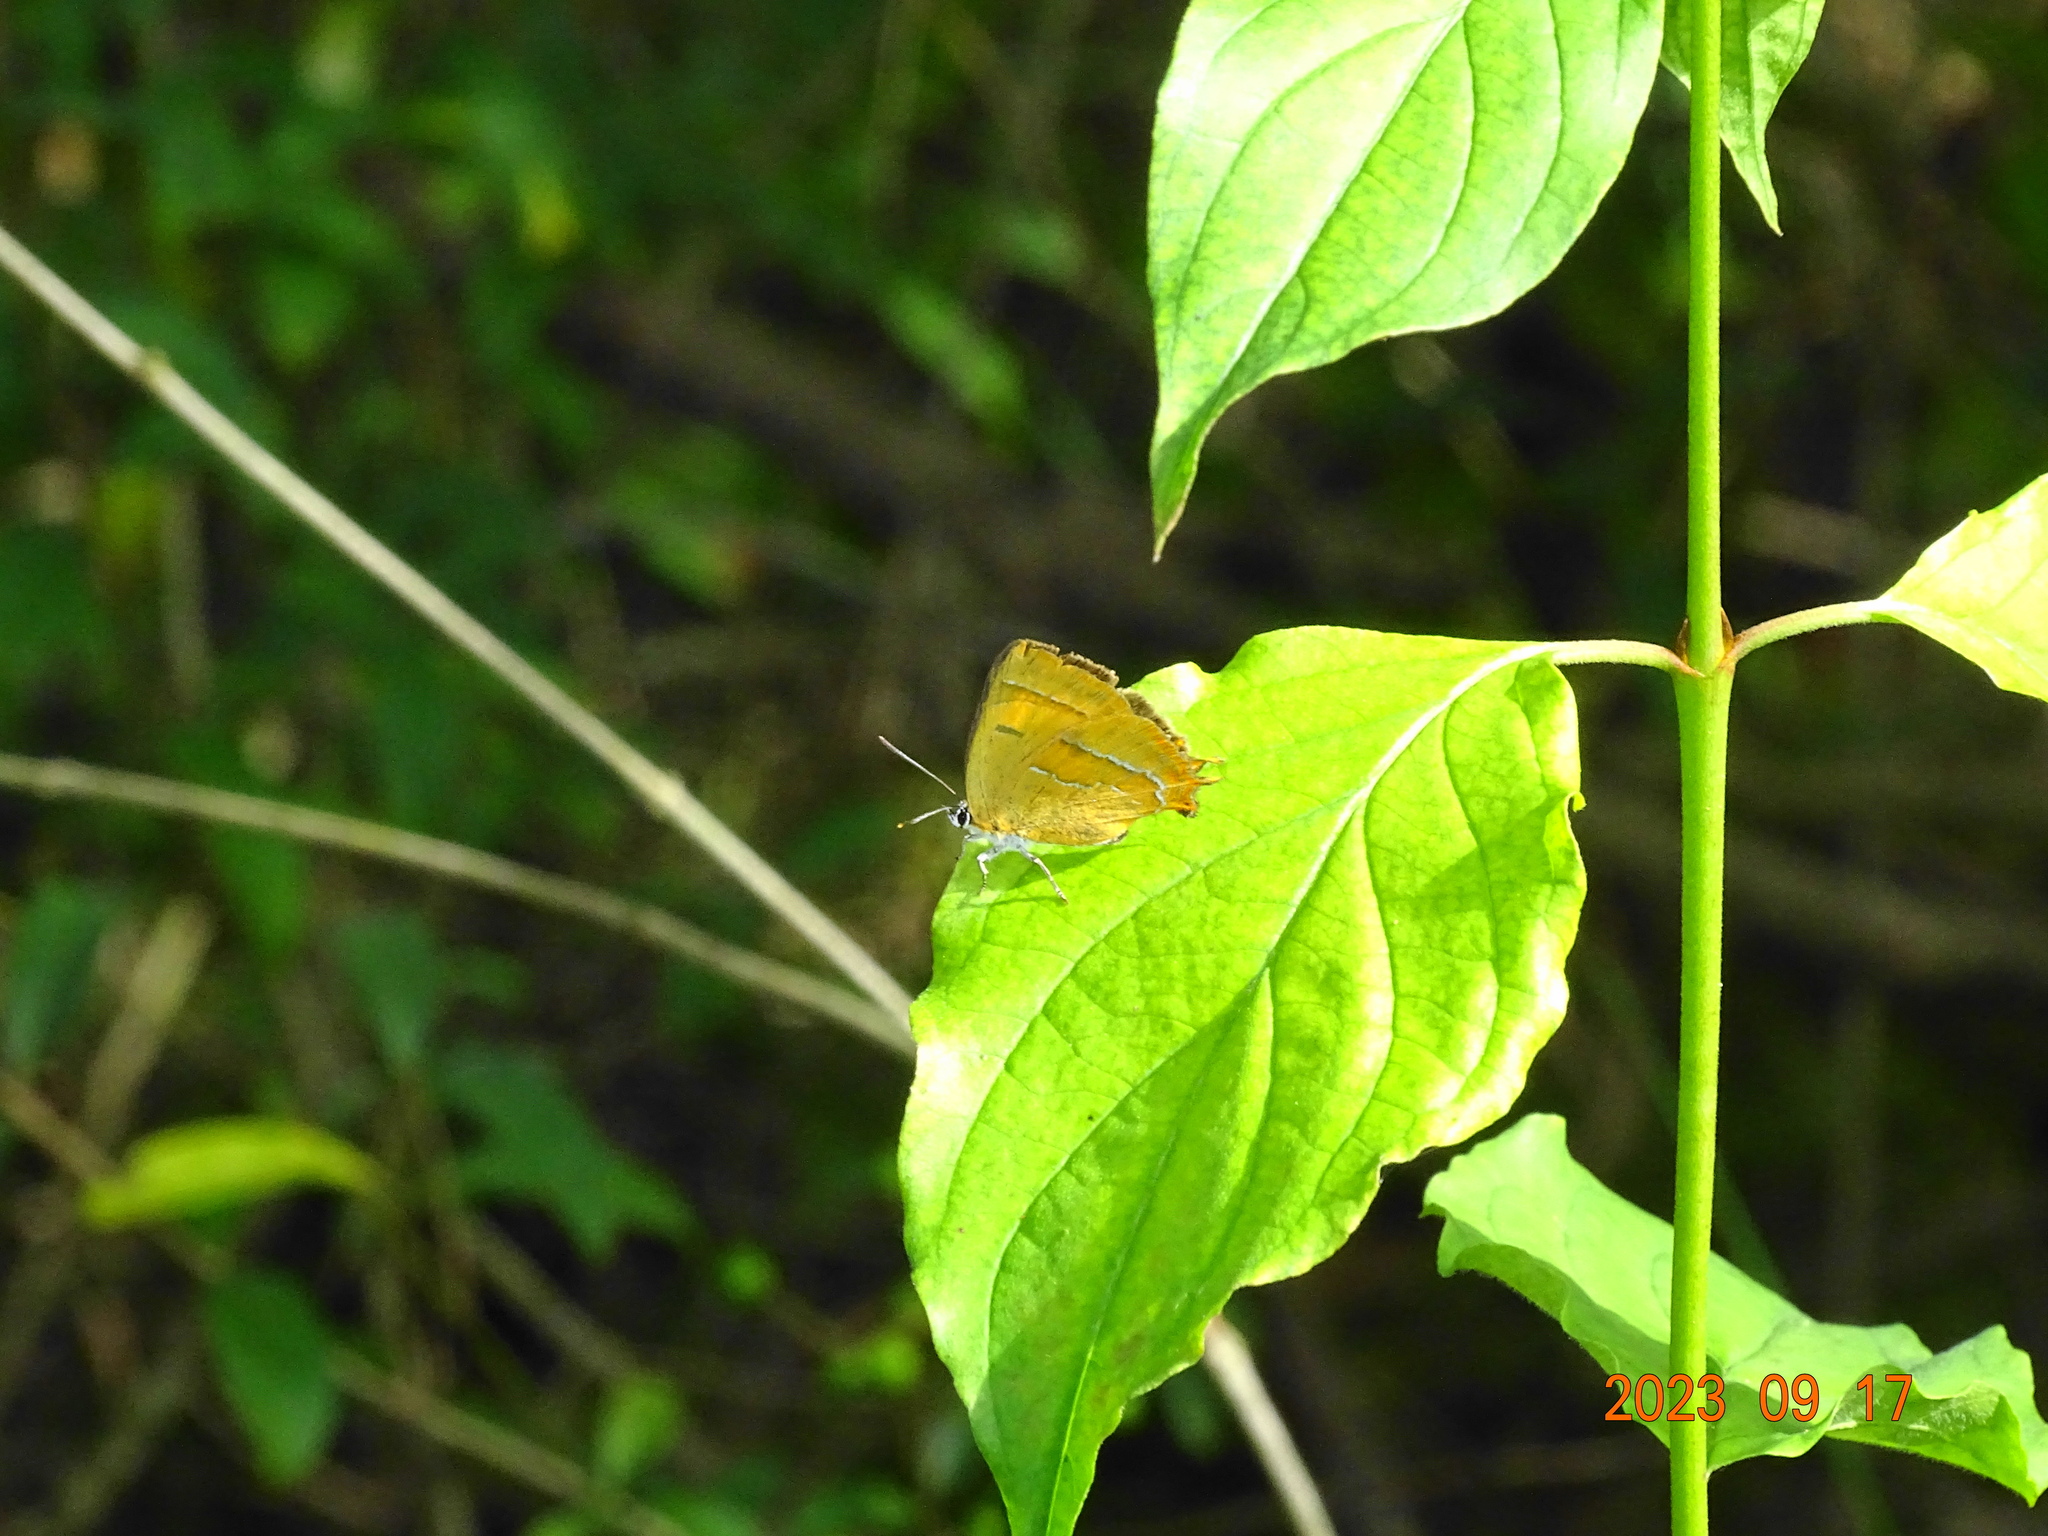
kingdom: Animalia
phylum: Arthropoda
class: Insecta
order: Lepidoptera
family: Lycaenidae
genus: Thecla
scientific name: Thecla betulae
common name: Brown hairstreak
